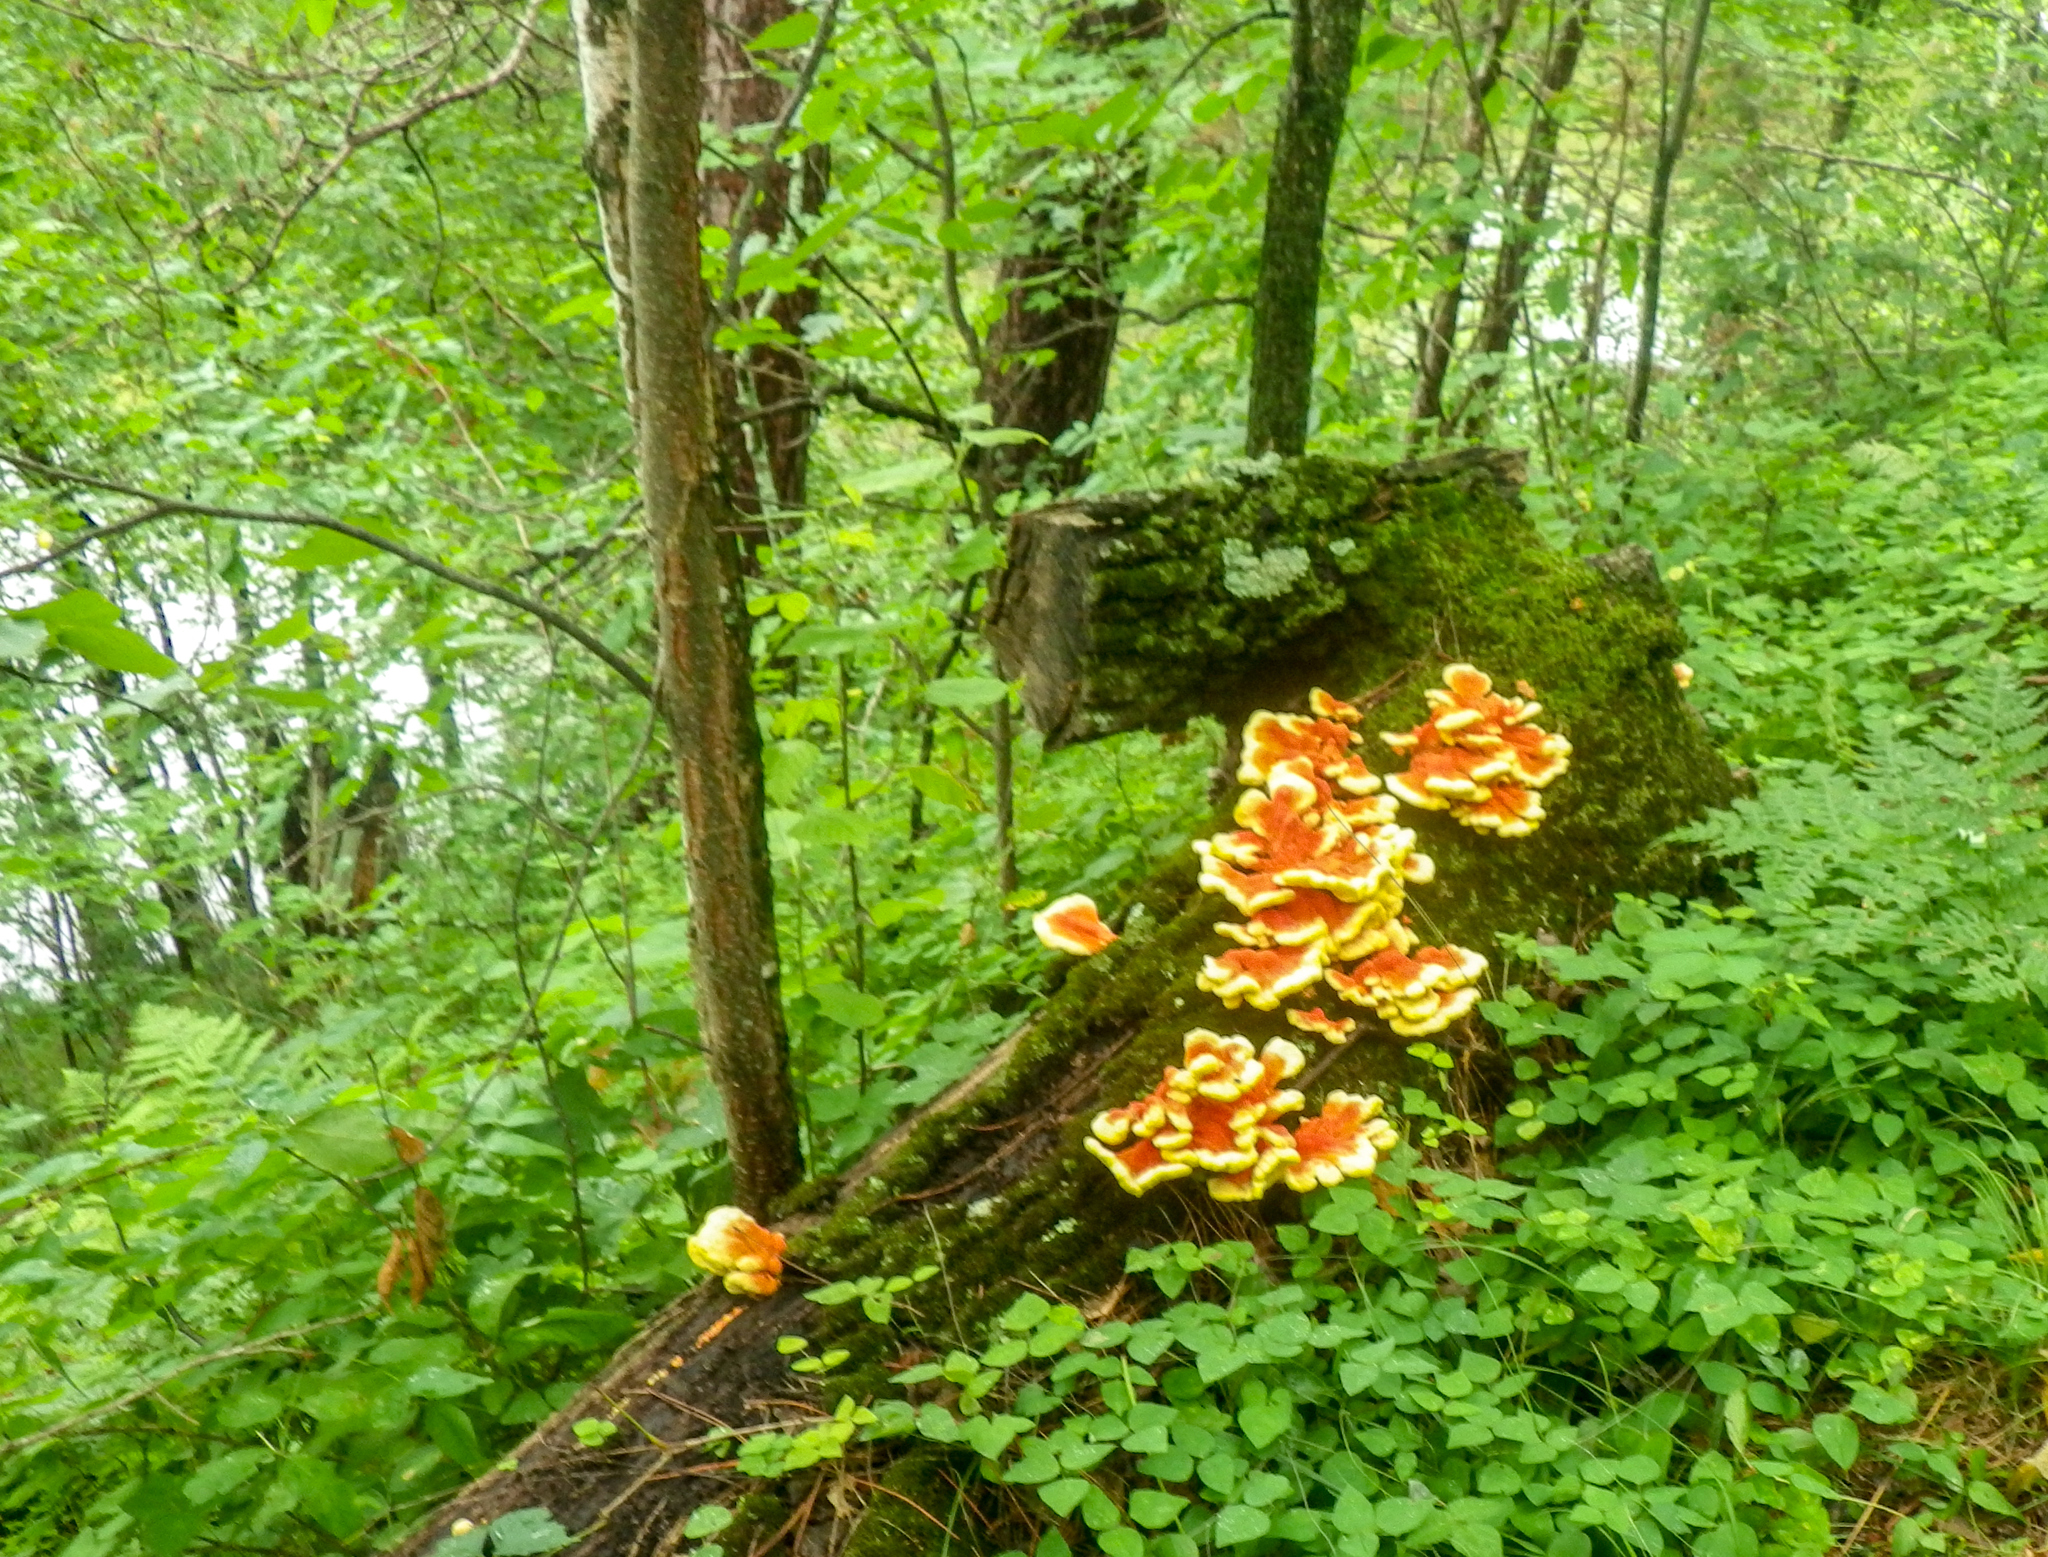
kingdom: Fungi
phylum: Basidiomycota
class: Agaricomycetes
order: Polyporales
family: Laetiporaceae
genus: Laetiporus
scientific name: Laetiporus sulphureus
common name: Chicken of the woods
